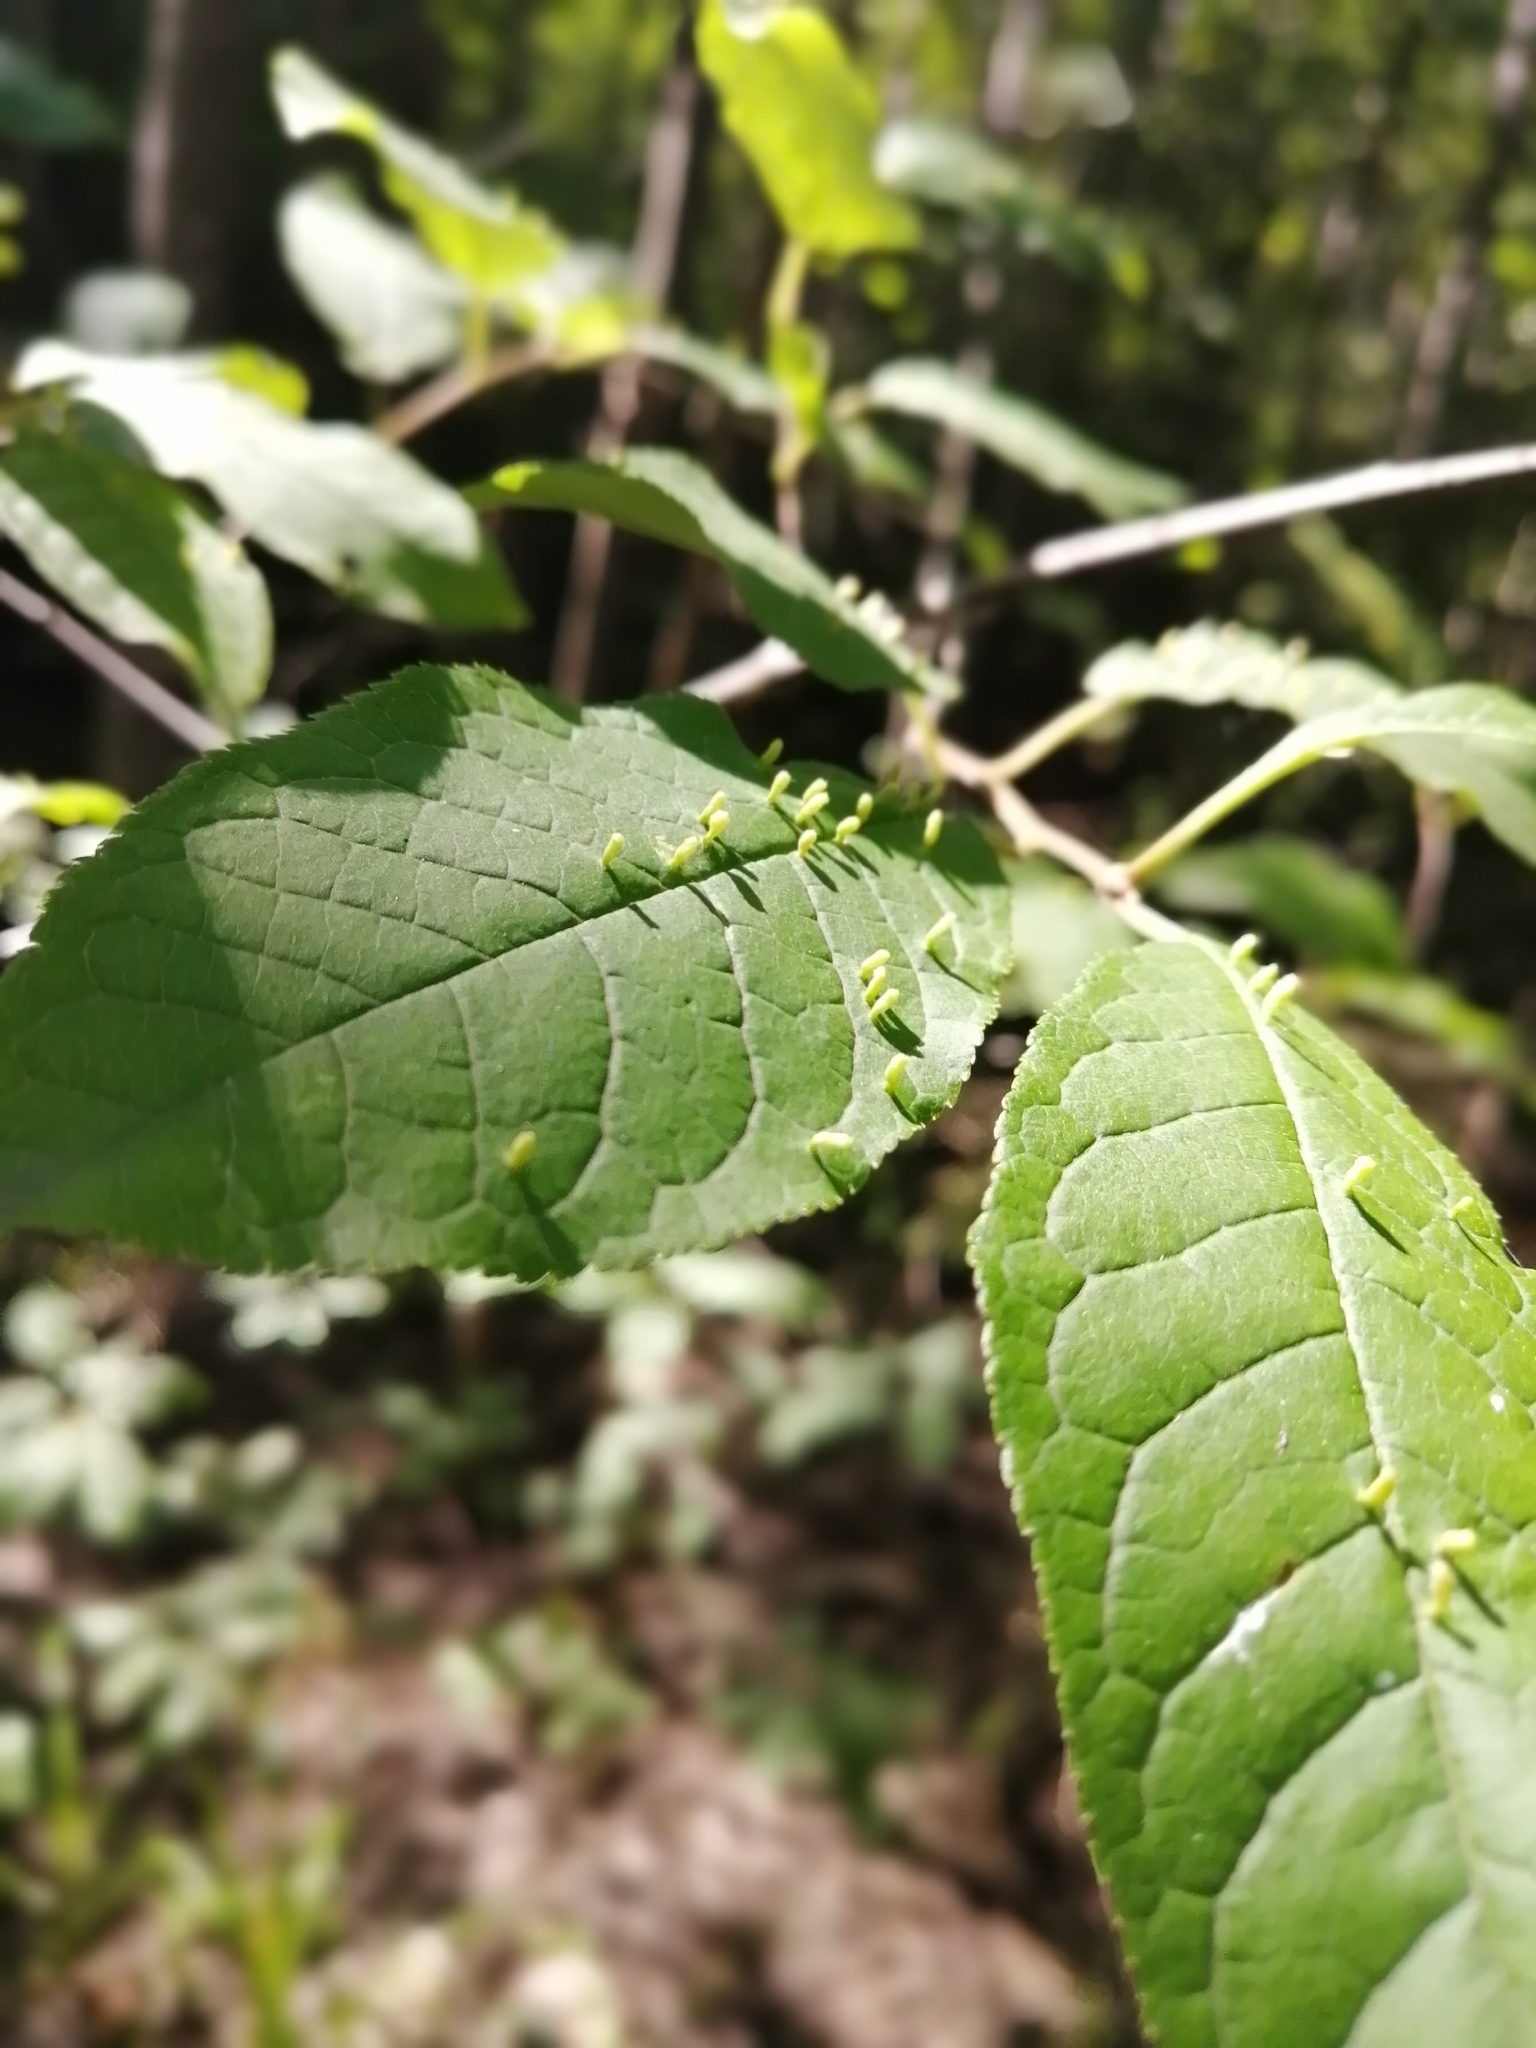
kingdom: Plantae
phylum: Tracheophyta
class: Magnoliopsida
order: Rosales
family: Rosaceae
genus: Prunus
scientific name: Prunus padus
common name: Bird cherry
